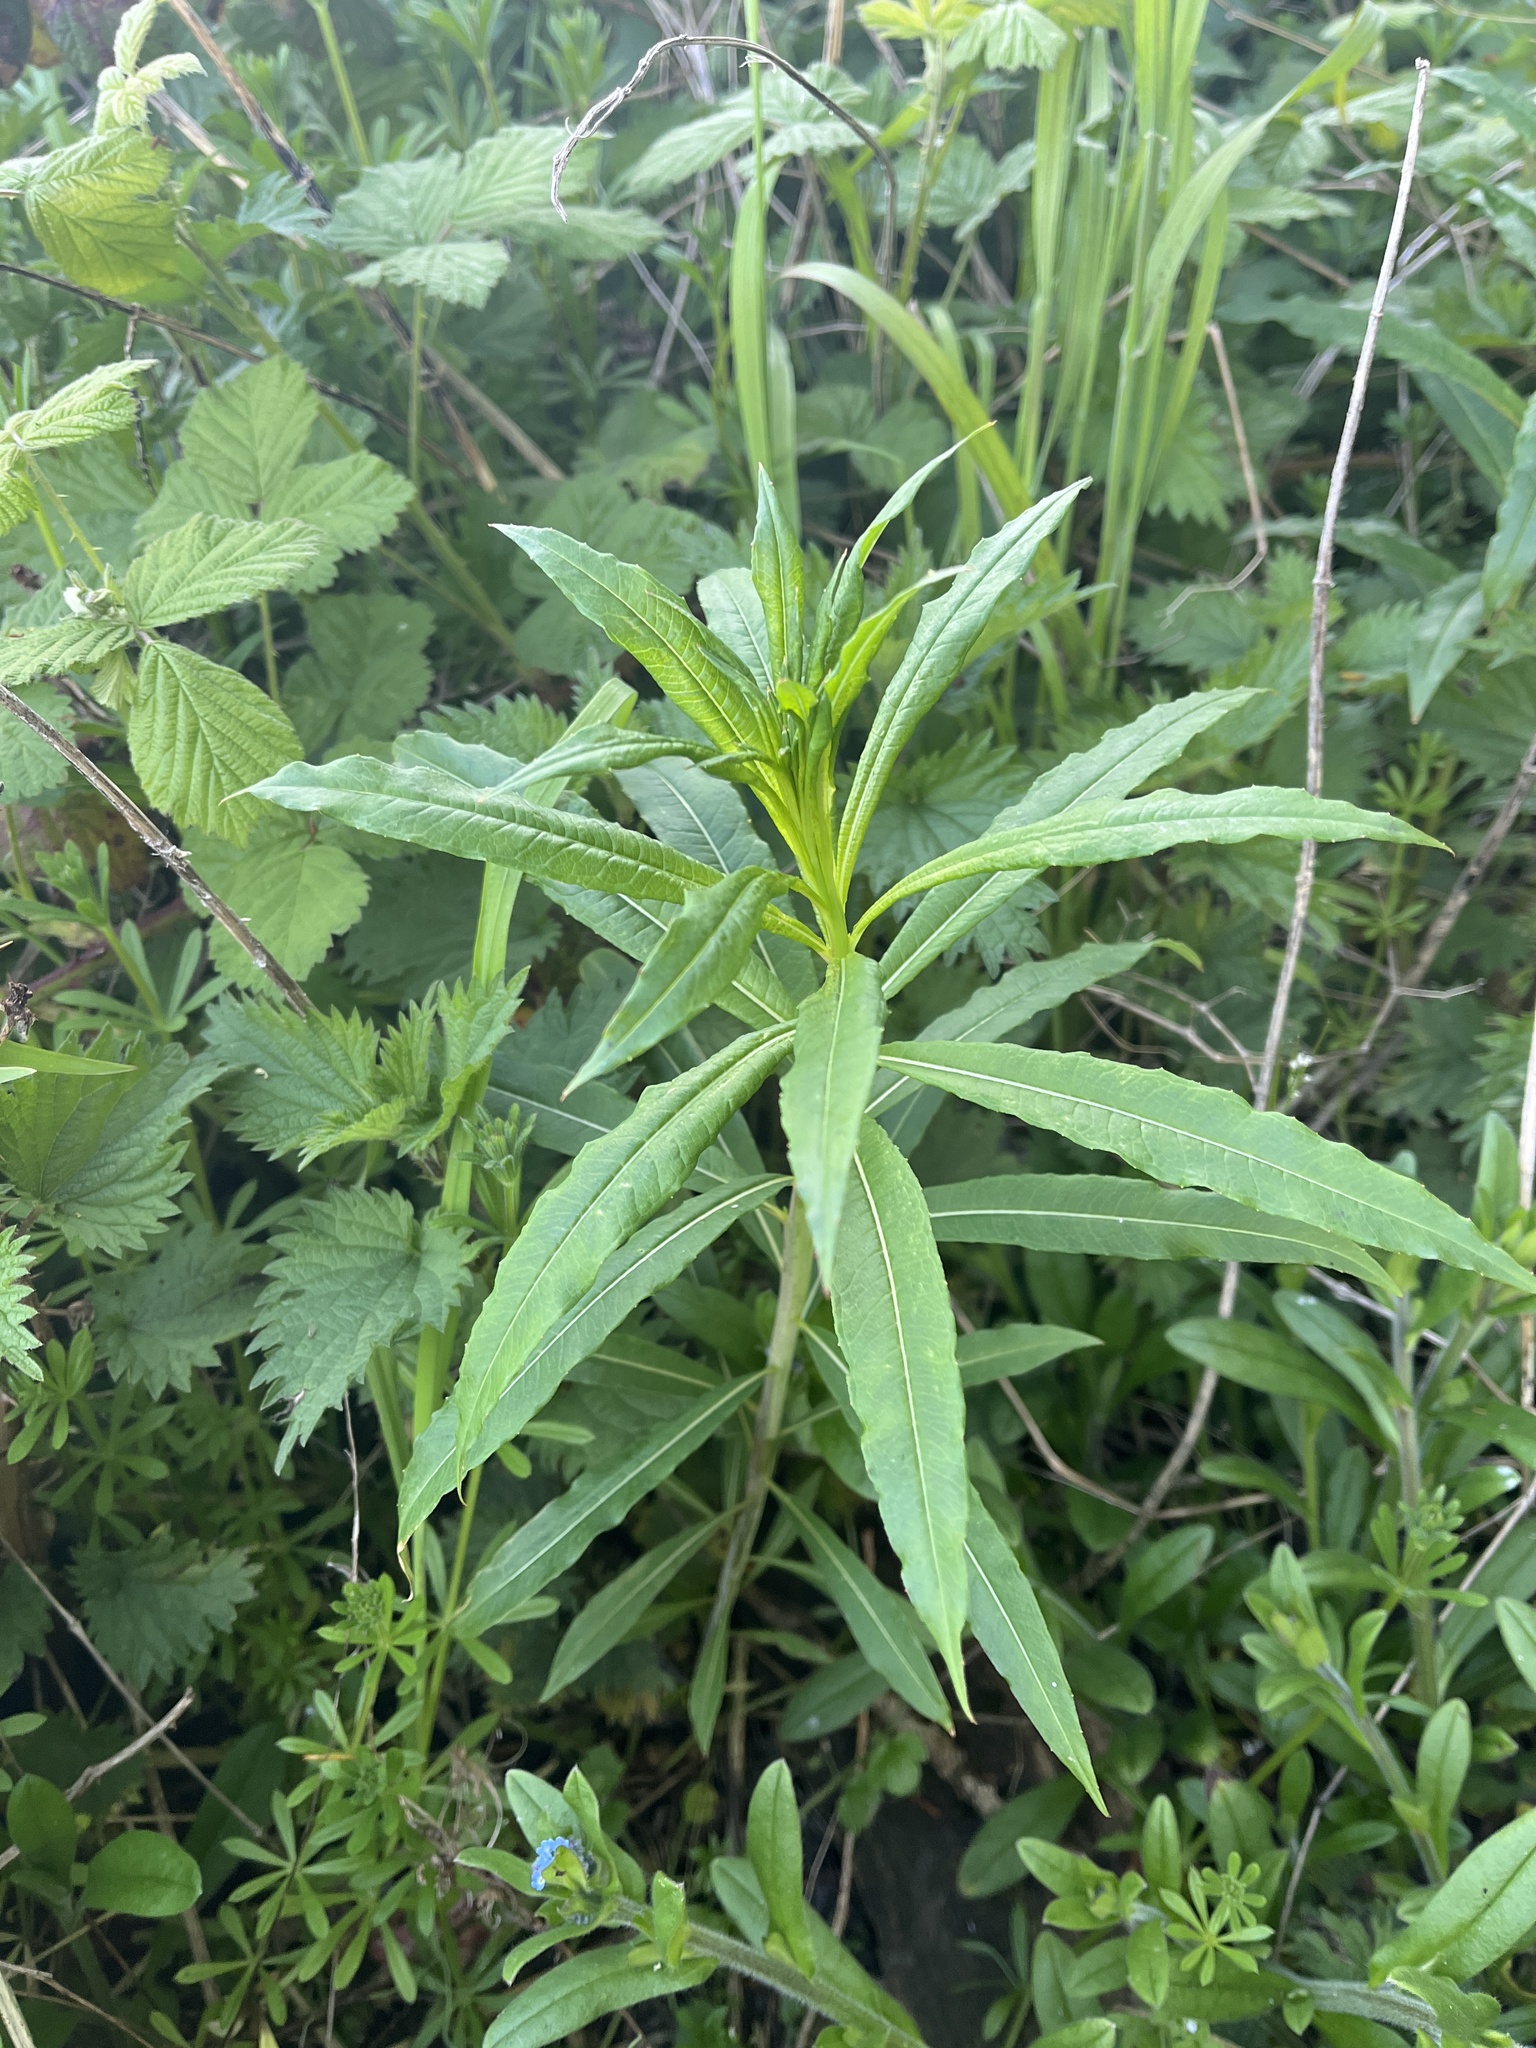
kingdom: Plantae
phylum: Tracheophyta
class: Magnoliopsida
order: Myrtales
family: Onagraceae
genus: Chamaenerion
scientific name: Chamaenerion angustifolium
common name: Fireweed
